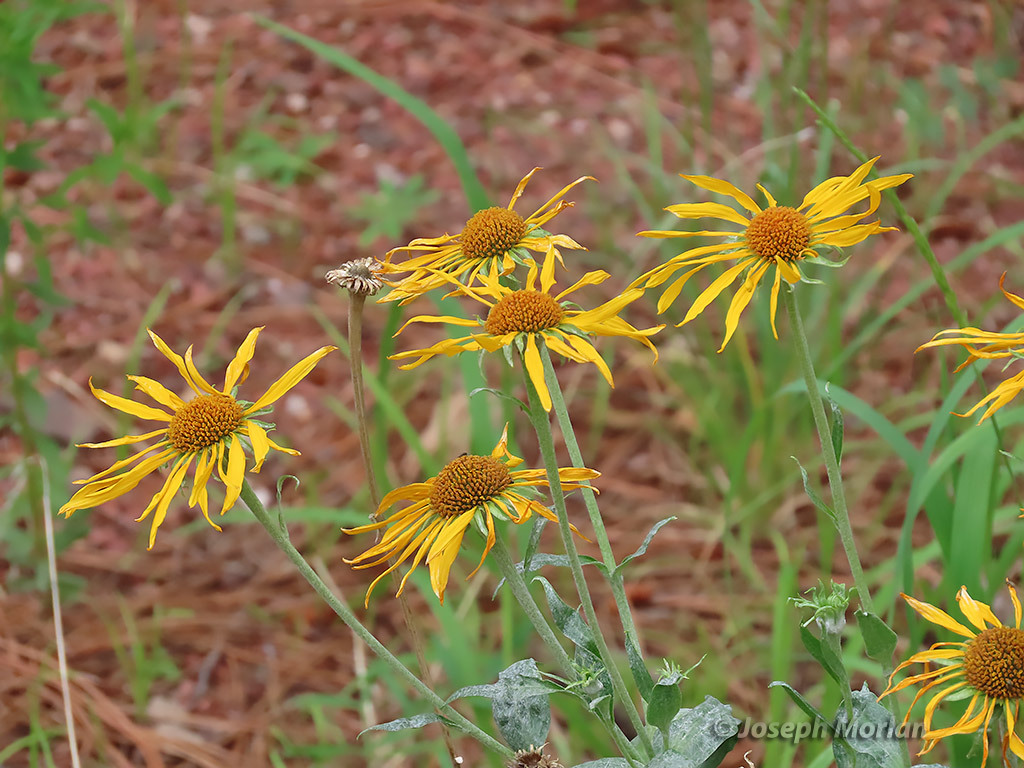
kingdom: Plantae
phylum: Tracheophyta
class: Magnoliopsida
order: Asterales
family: Asteraceae
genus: Hymenoxys
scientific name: Hymenoxys hoopesii
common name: Orange-sneezeweed
